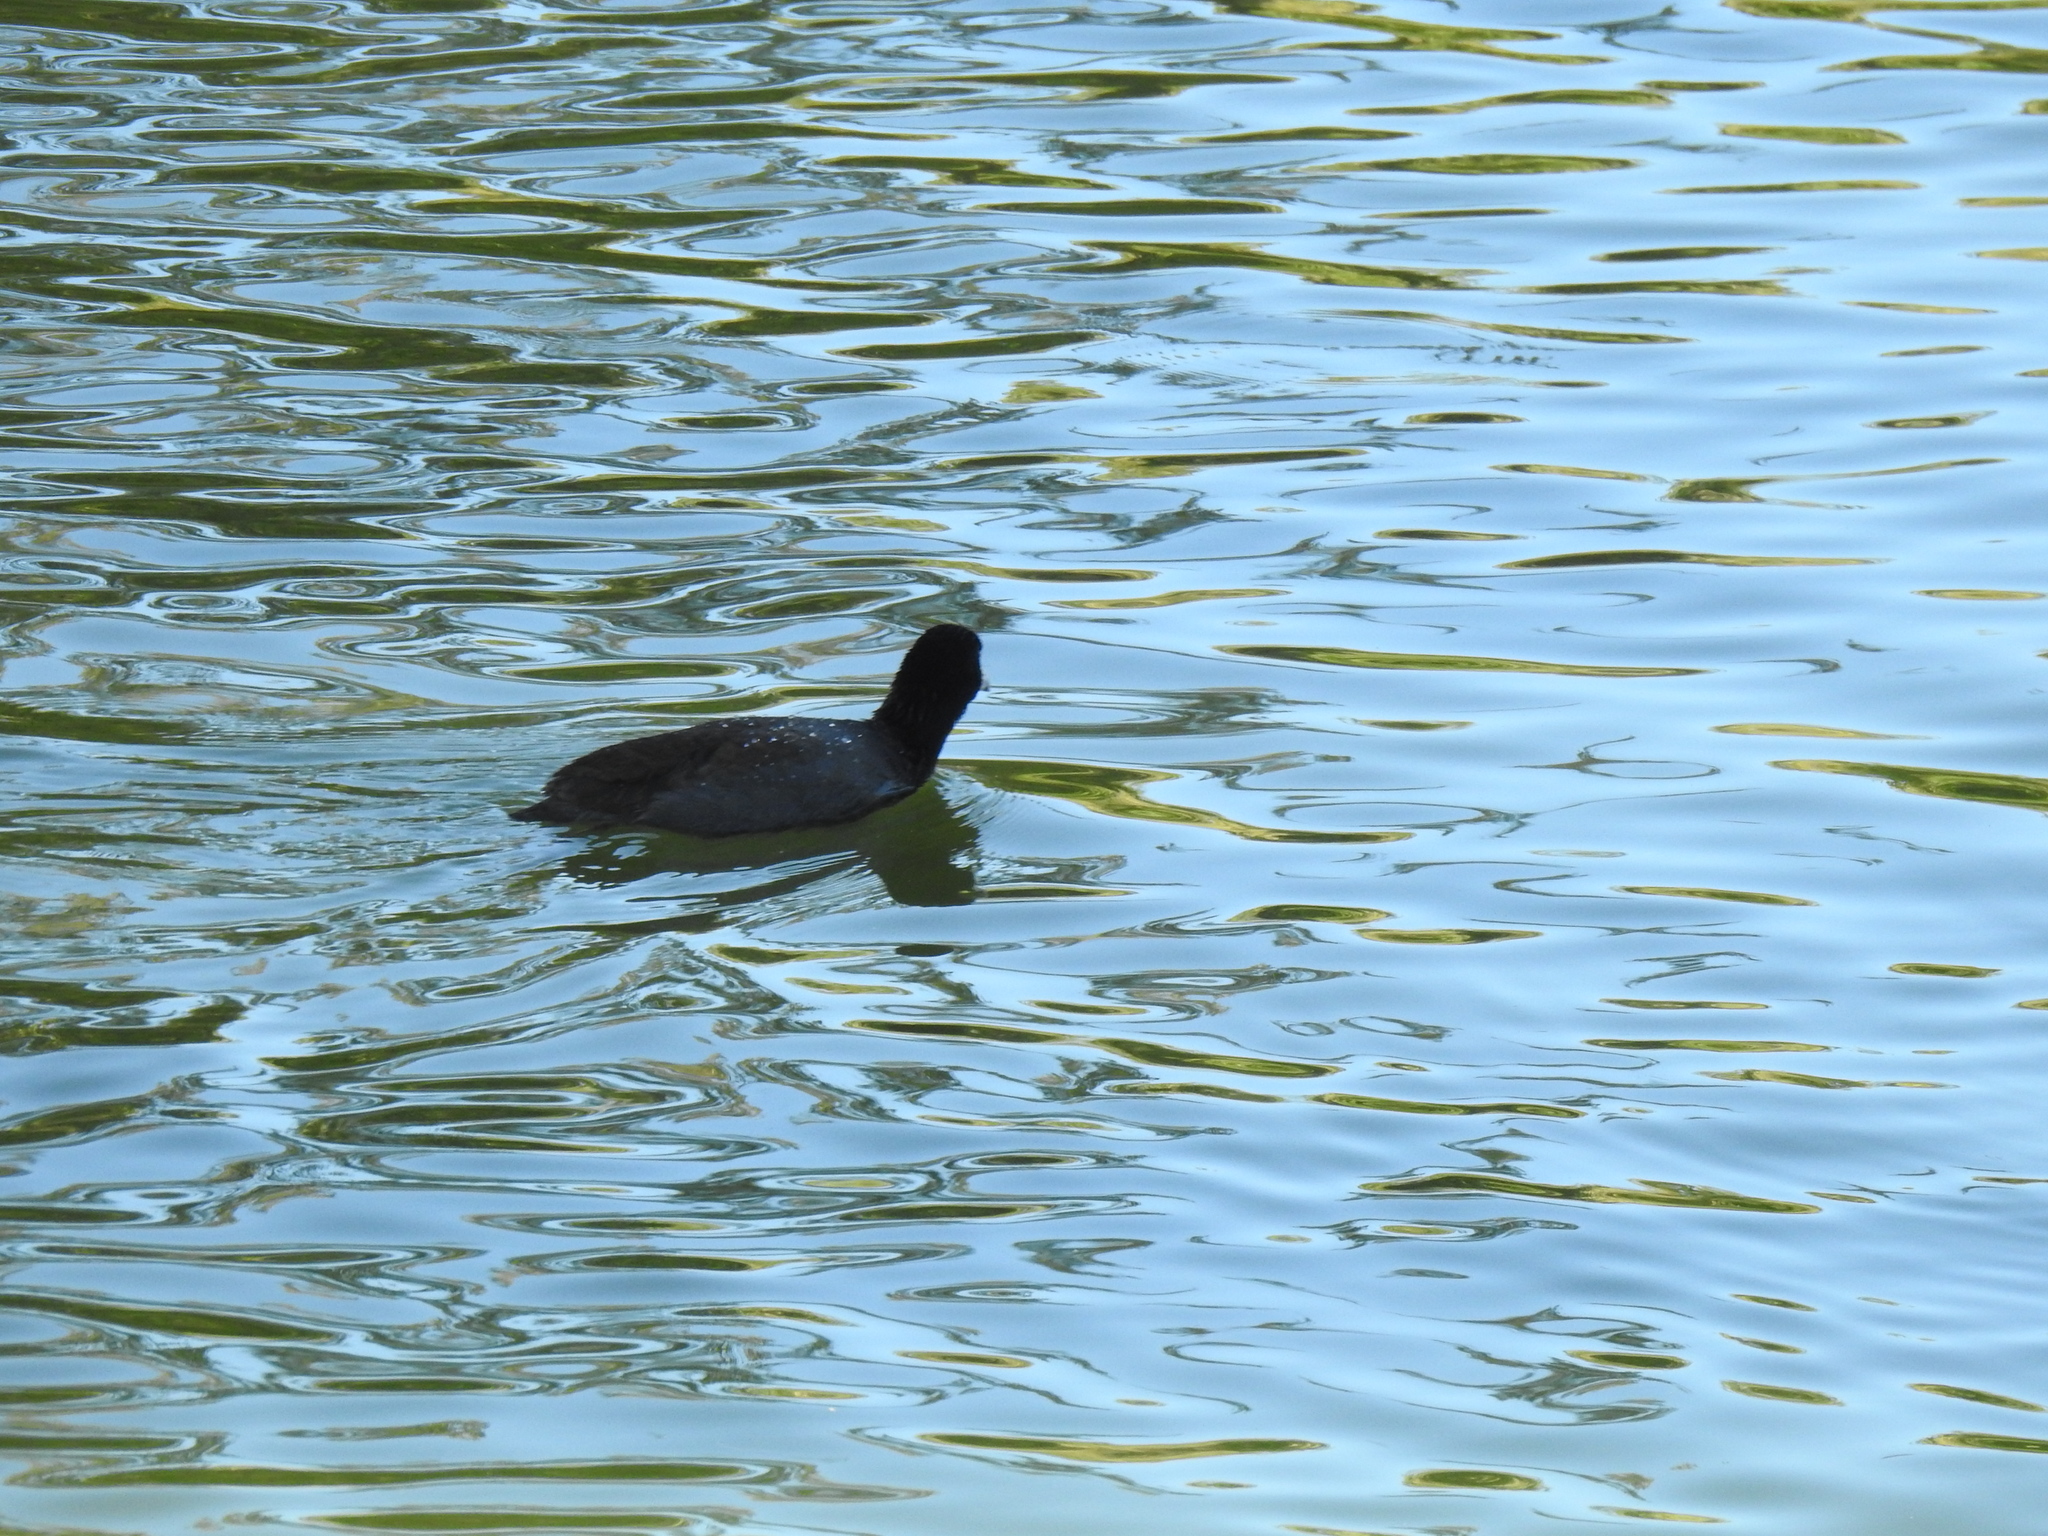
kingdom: Animalia
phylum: Chordata
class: Aves
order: Gruiformes
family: Rallidae
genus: Fulica
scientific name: Fulica americana
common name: American coot
